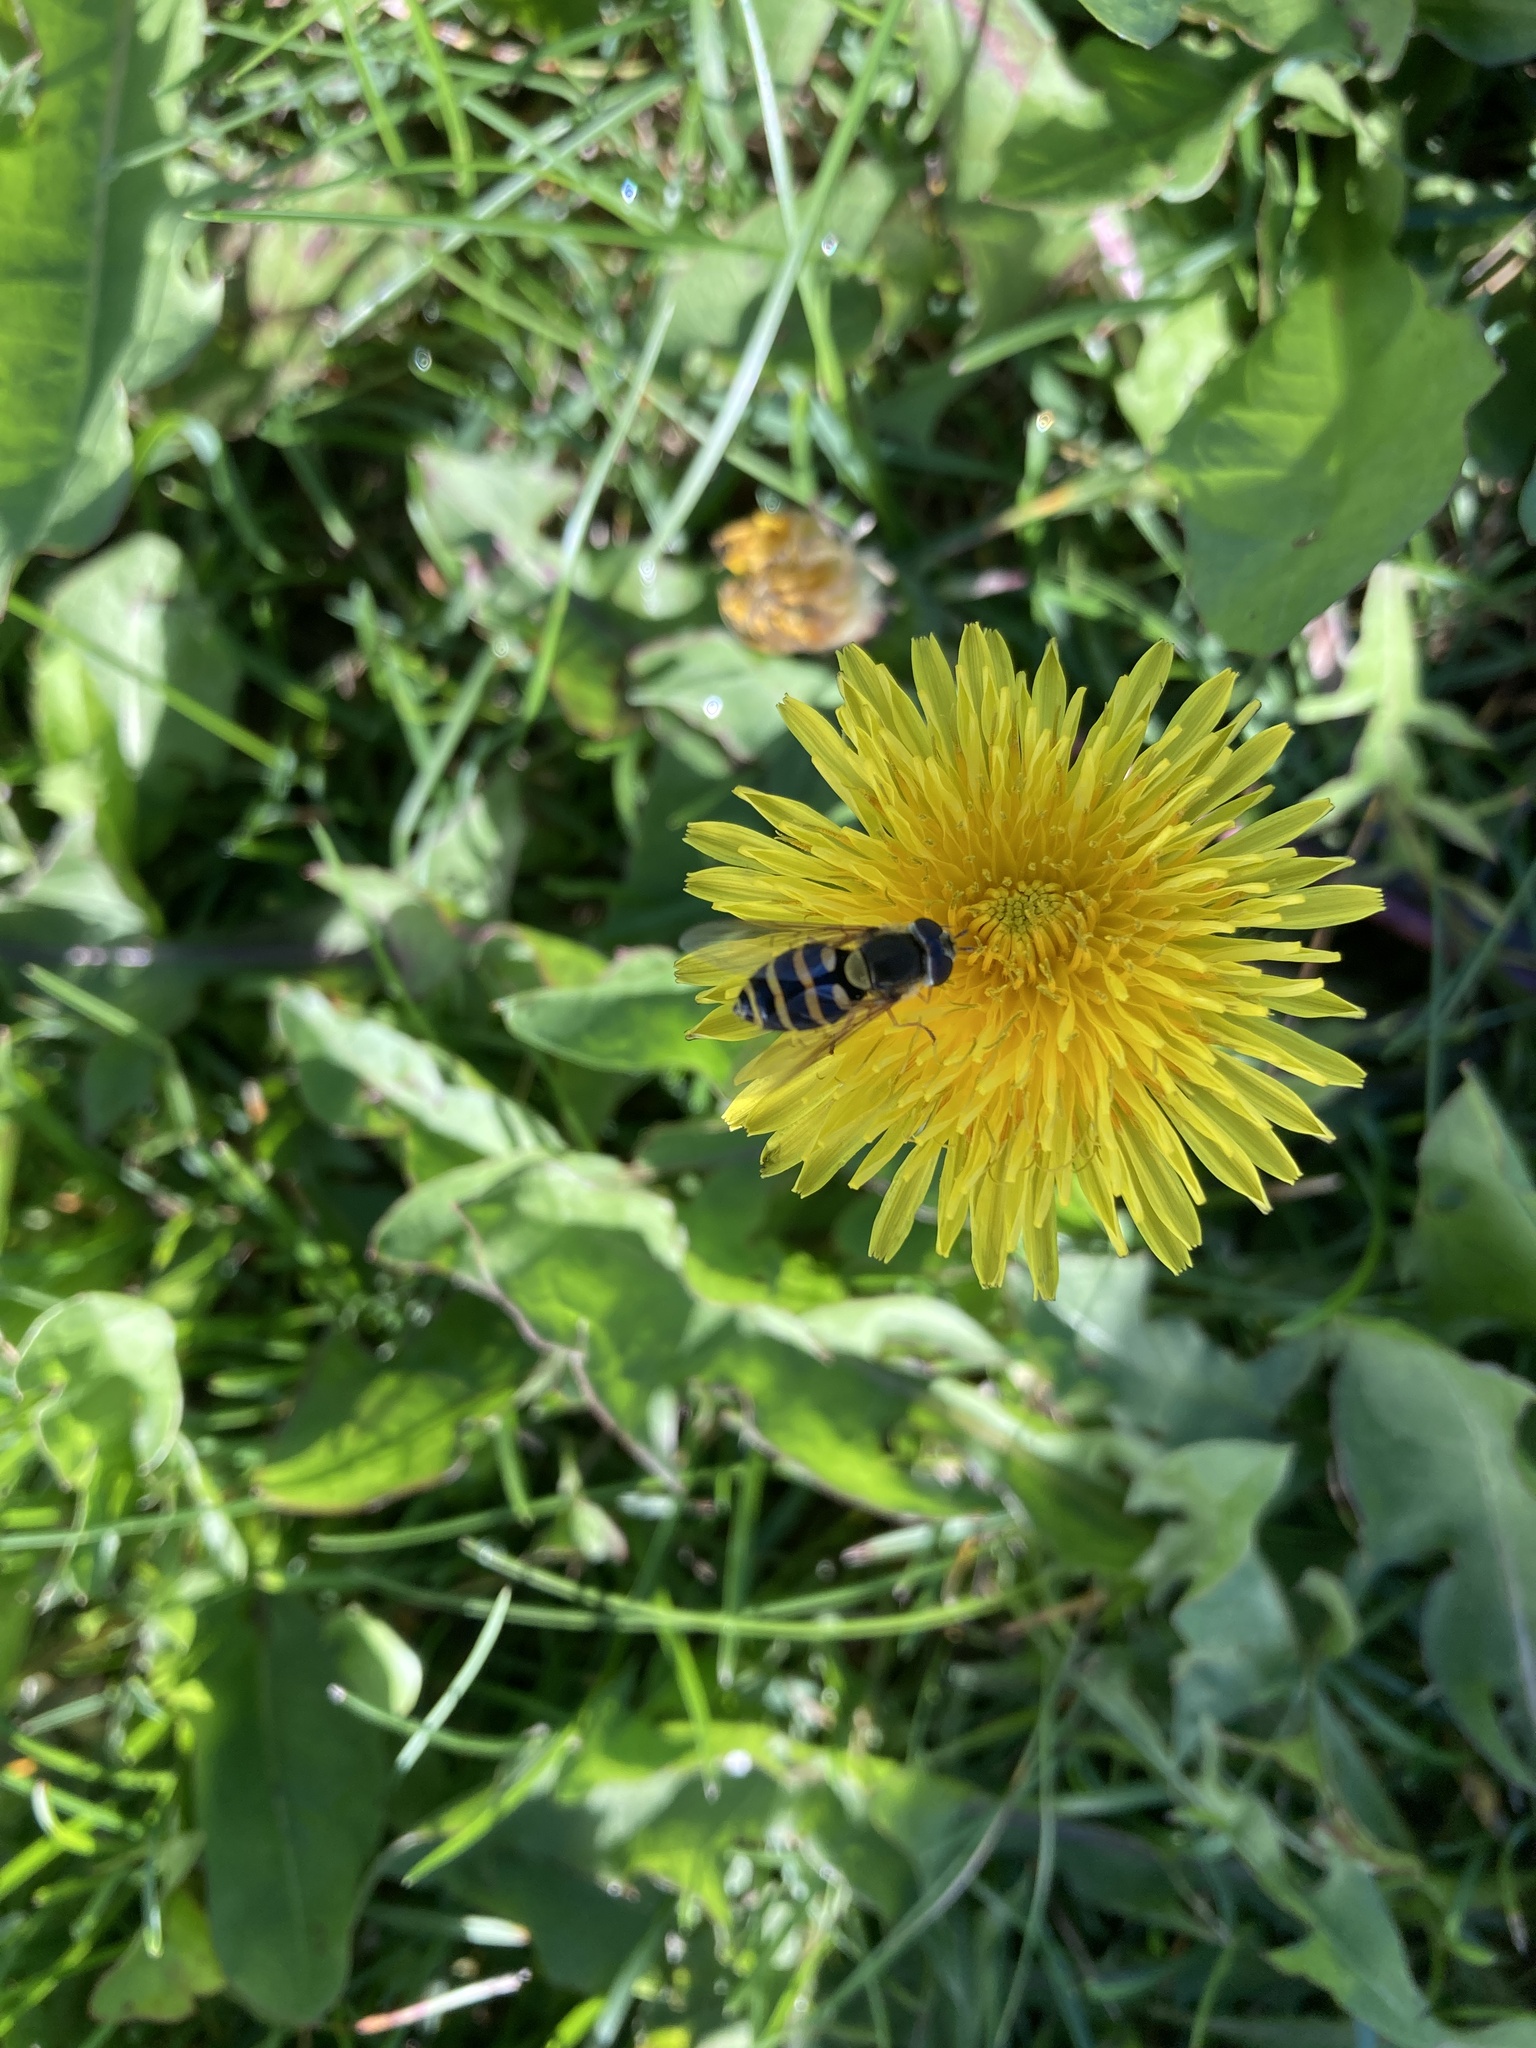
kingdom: Animalia
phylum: Arthropoda
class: Insecta
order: Diptera
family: Syrphidae
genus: Syrphus
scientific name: Syrphus
